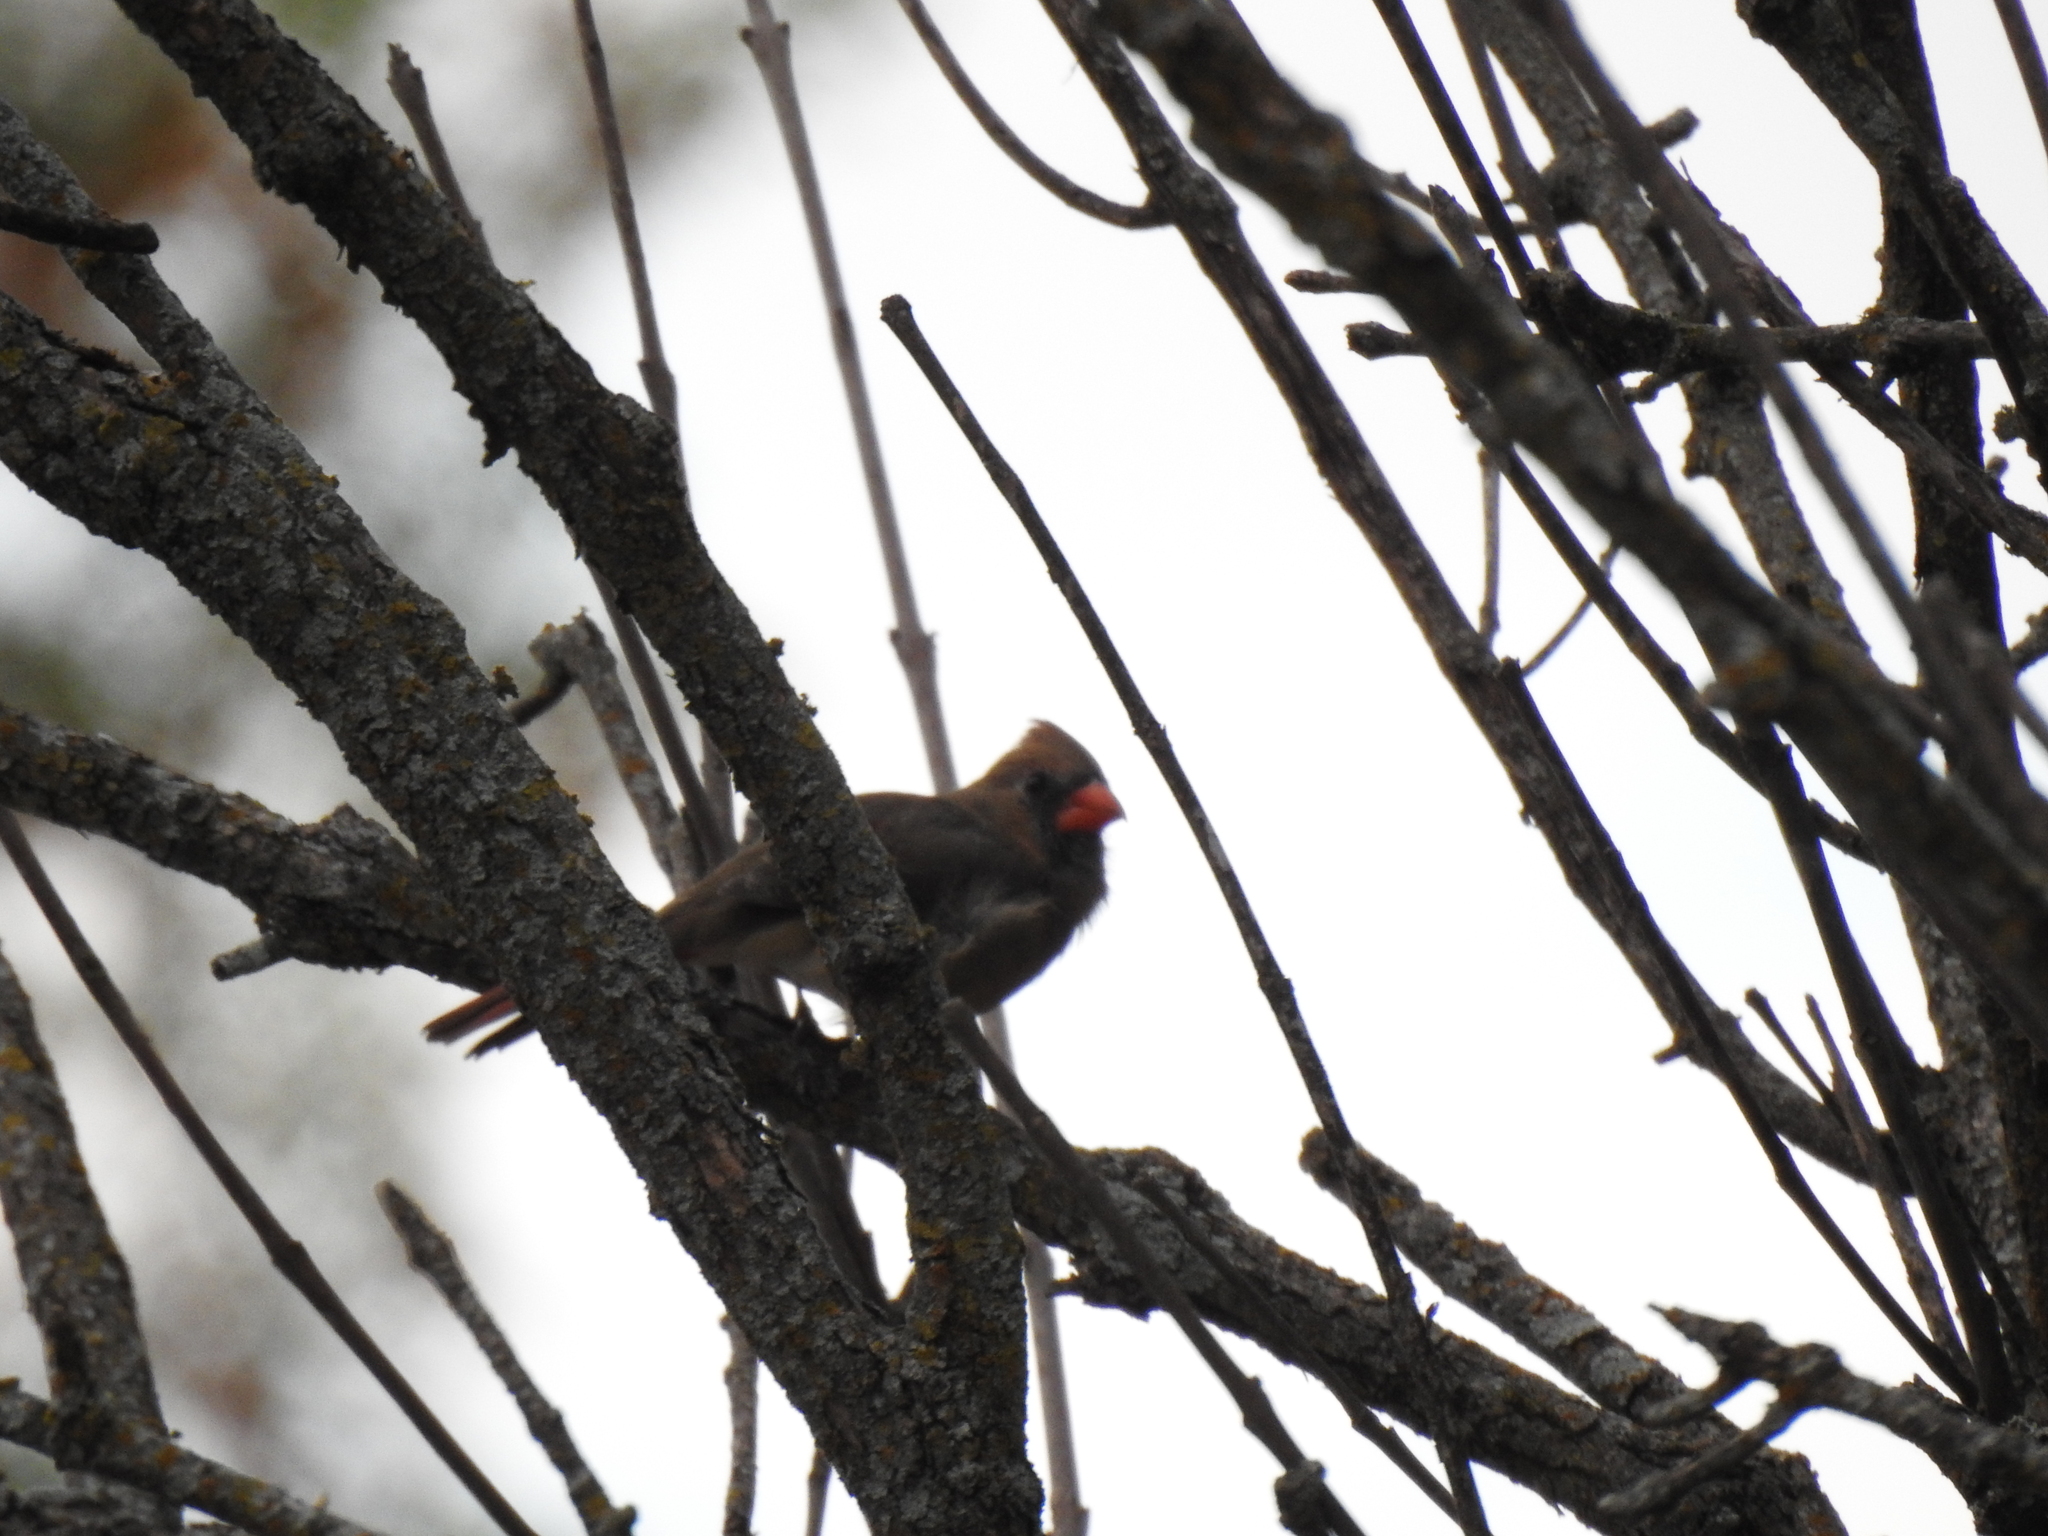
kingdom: Animalia
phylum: Chordata
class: Aves
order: Passeriformes
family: Cardinalidae
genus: Cardinalis
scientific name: Cardinalis cardinalis
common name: Northern cardinal
